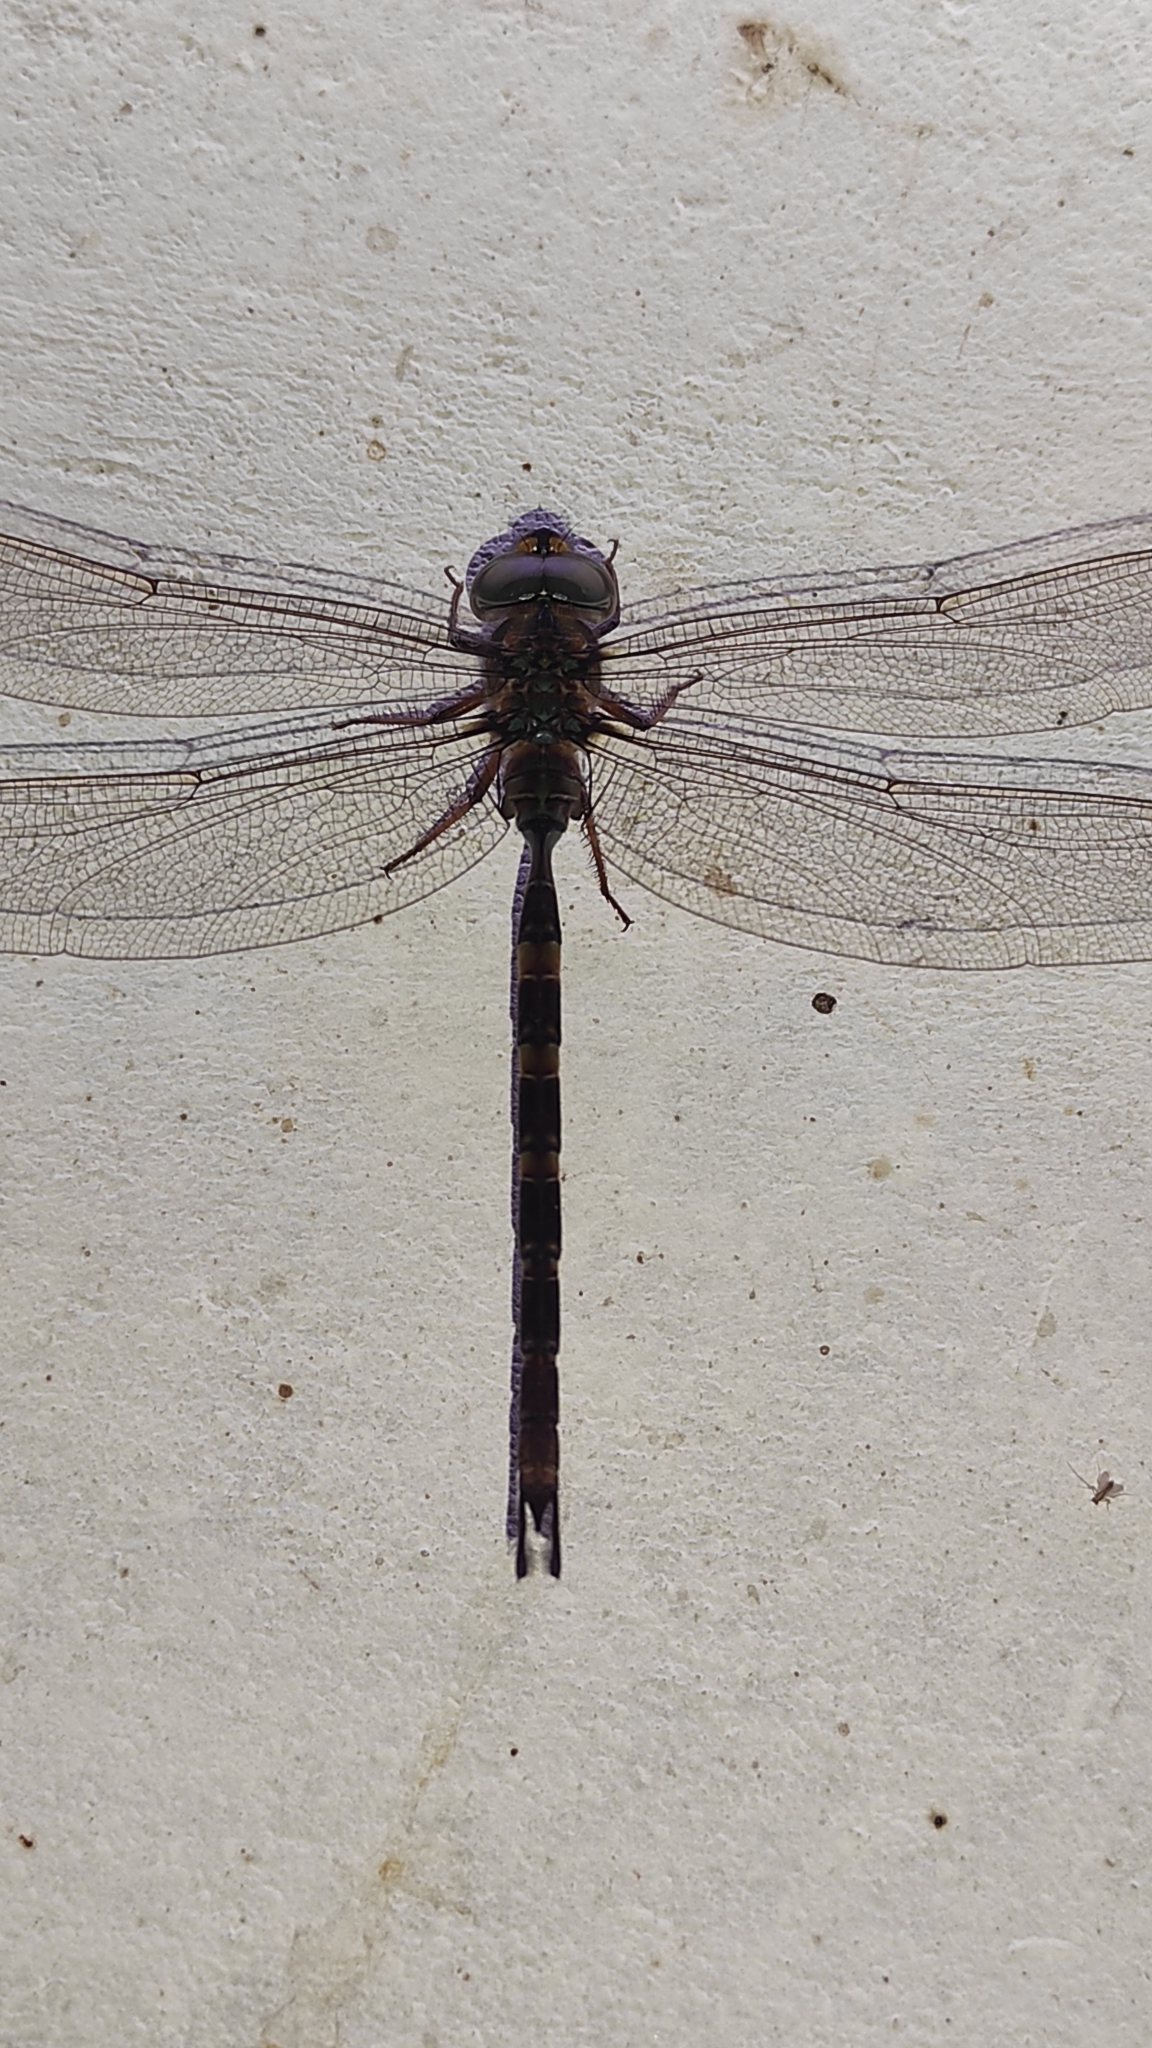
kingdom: Animalia
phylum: Arthropoda
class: Insecta
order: Odonata
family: Aeshnidae
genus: Gynacantha
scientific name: Gynacantha dravida
